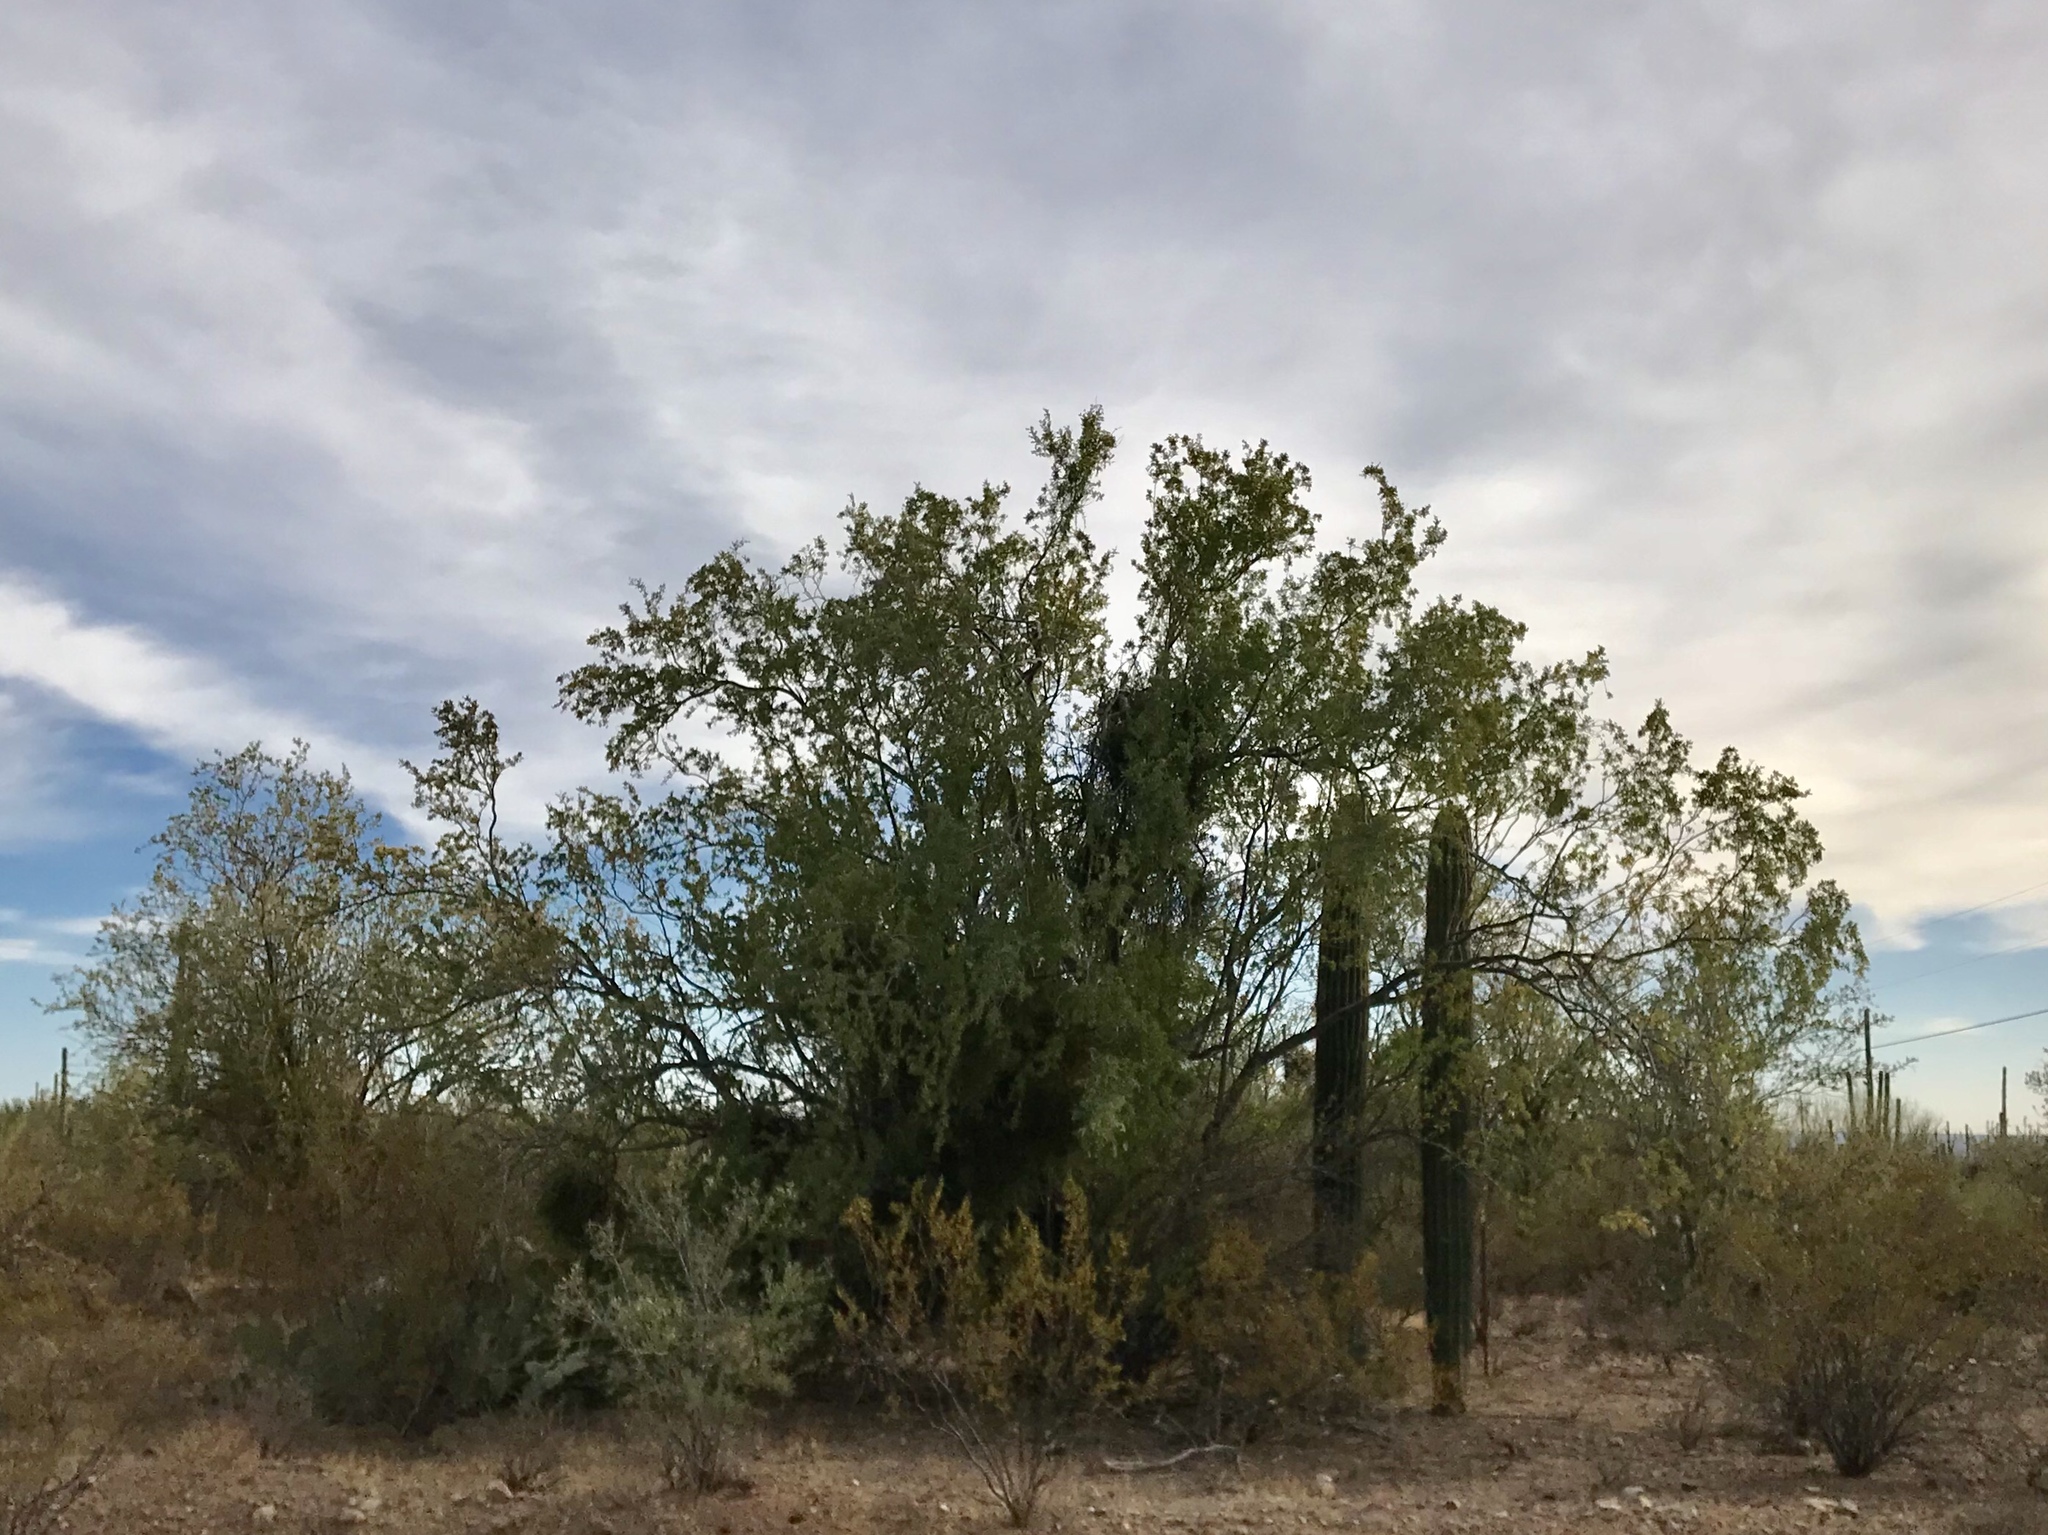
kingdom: Plantae
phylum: Tracheophyta
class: Magnoliopsida
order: Fabales
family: Fabaceae
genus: Olneya
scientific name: Olneya tesota
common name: Desert ironwood
